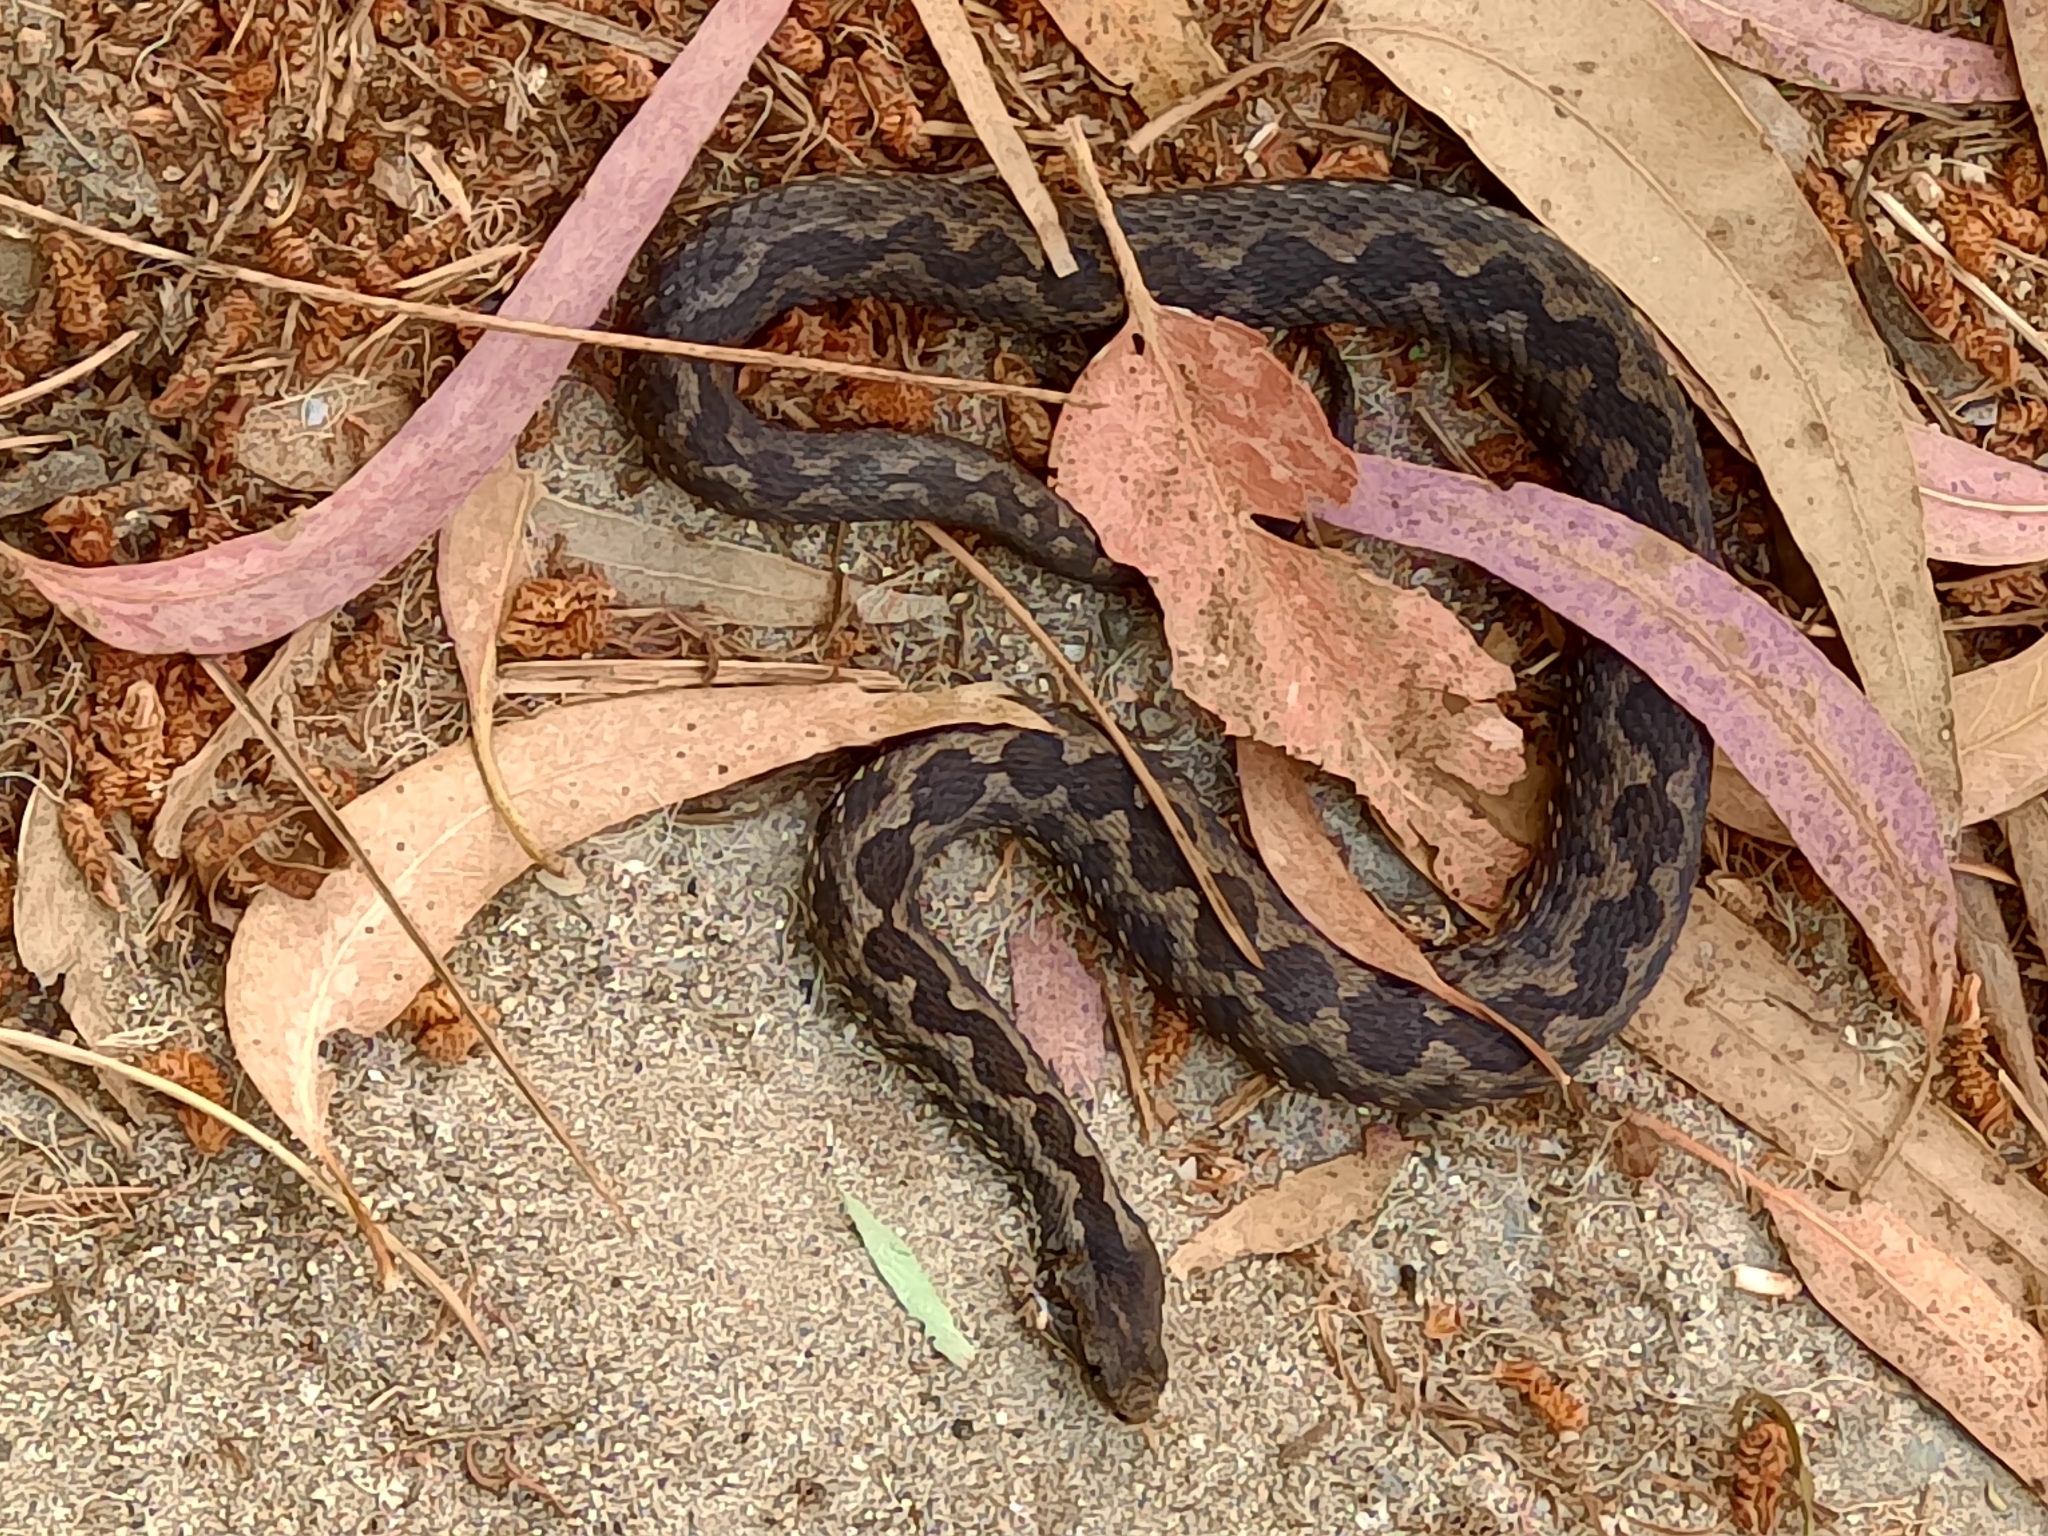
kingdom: Animalia
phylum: Chordata
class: Squamata
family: Viperidae
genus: Vipera
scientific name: Vipera latastei
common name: Lataste's viper
